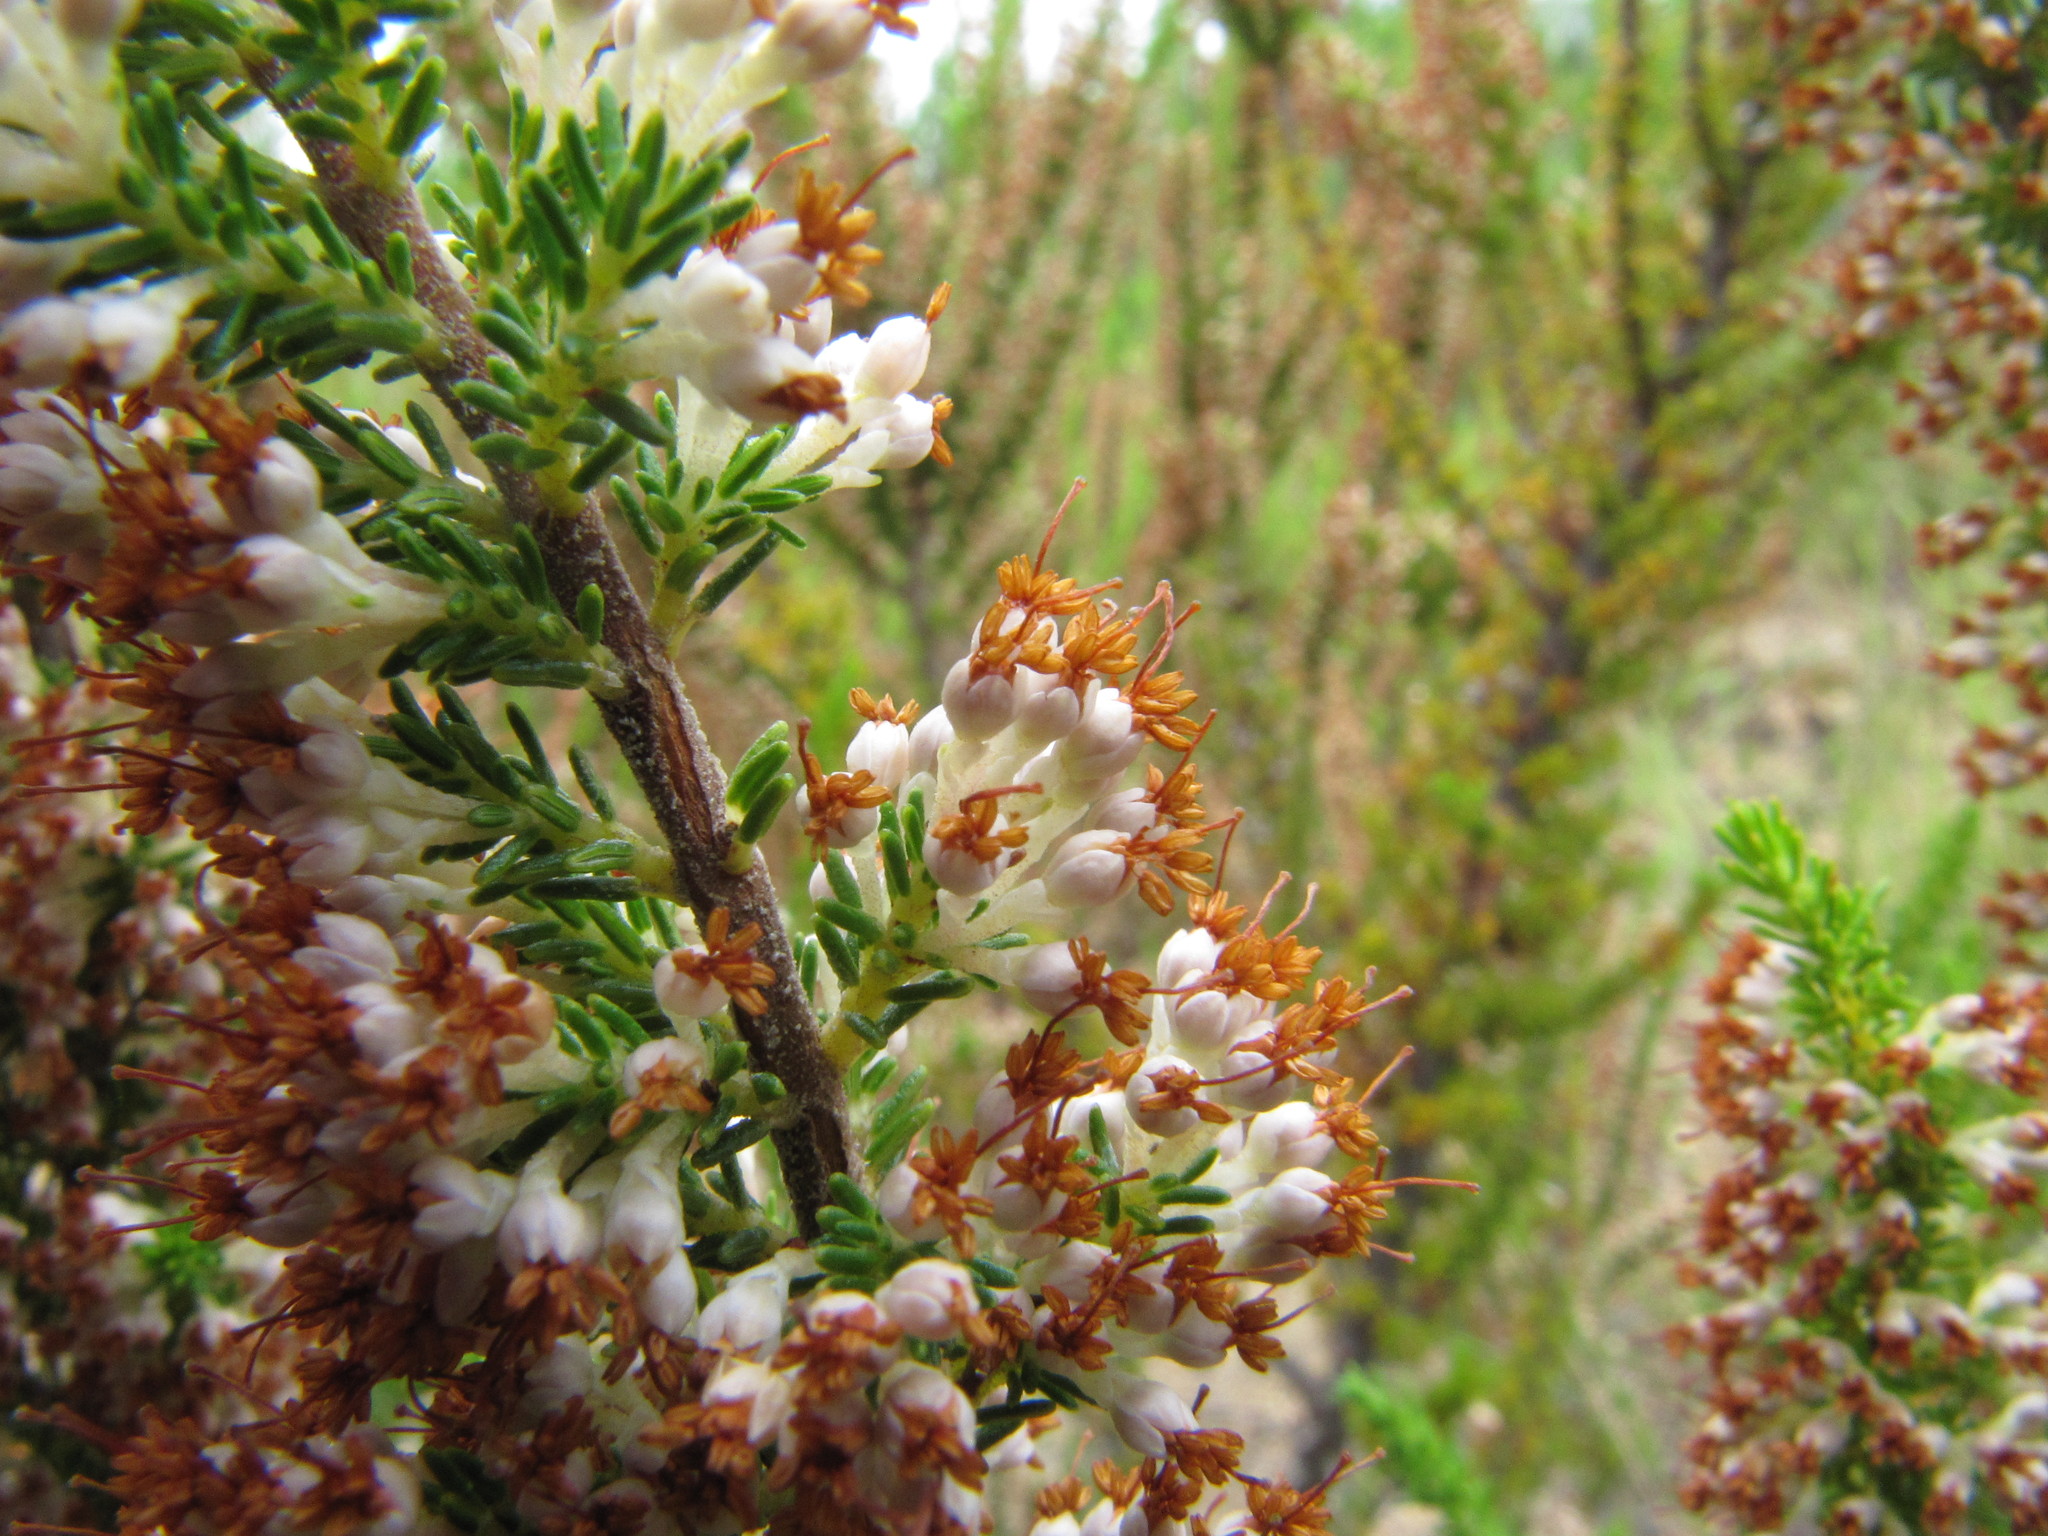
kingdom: Plantae
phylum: Tracheophyta
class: Magnoliopsida
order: Ericales
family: Ericaceae
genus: Erica
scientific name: Erica imbricata
